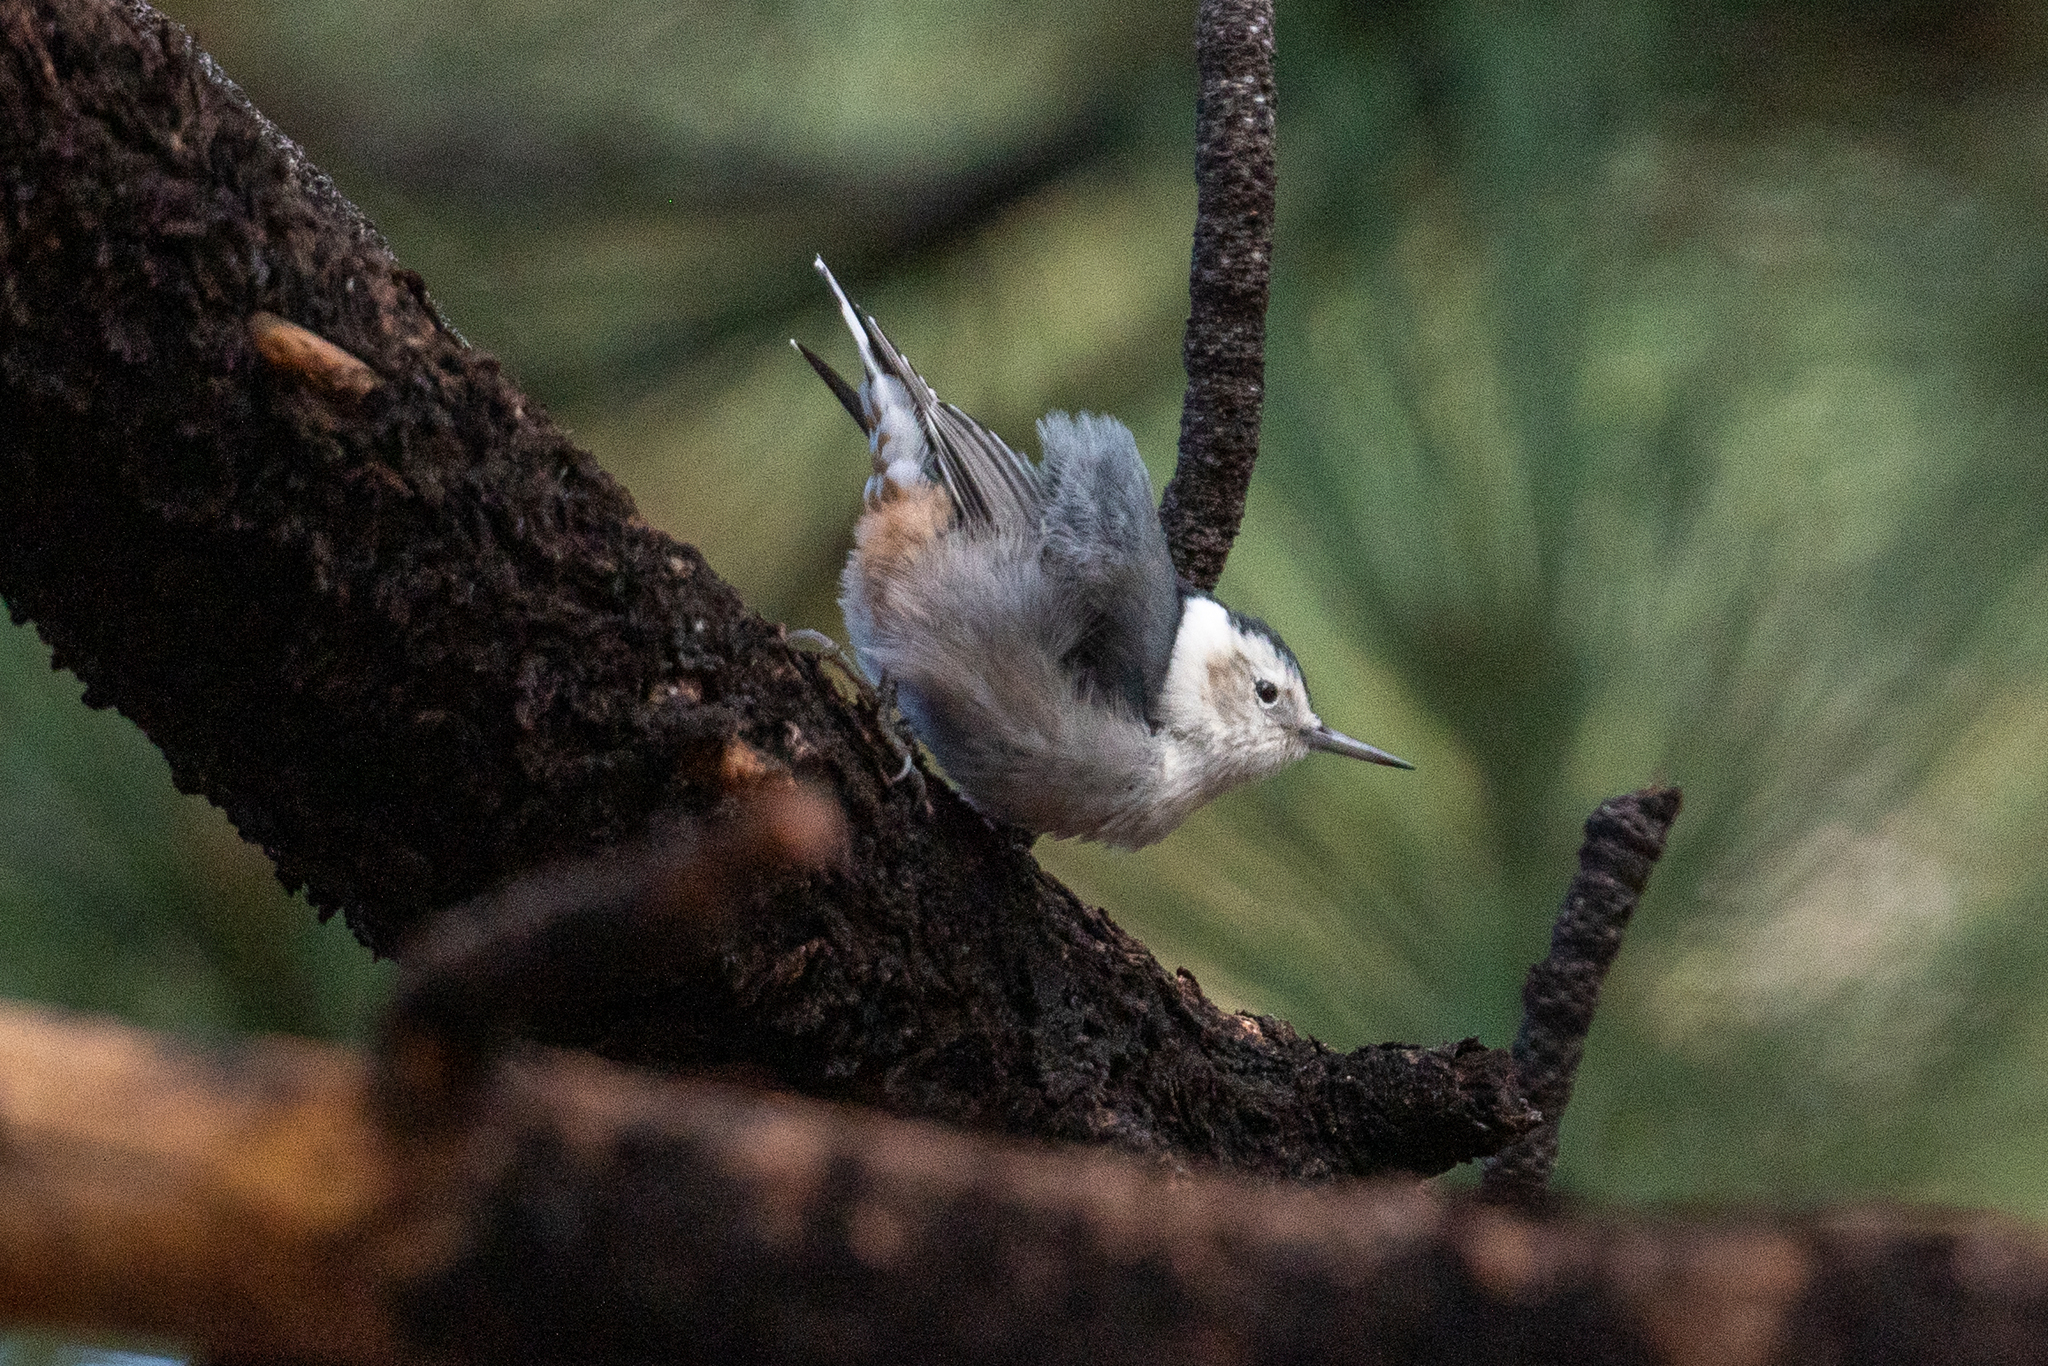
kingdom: Animalia
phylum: Chordata
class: Aves
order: Passeriformes
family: Sittidae
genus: Sitta
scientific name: Sitta carolinensis
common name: White-breasted nuthatch
